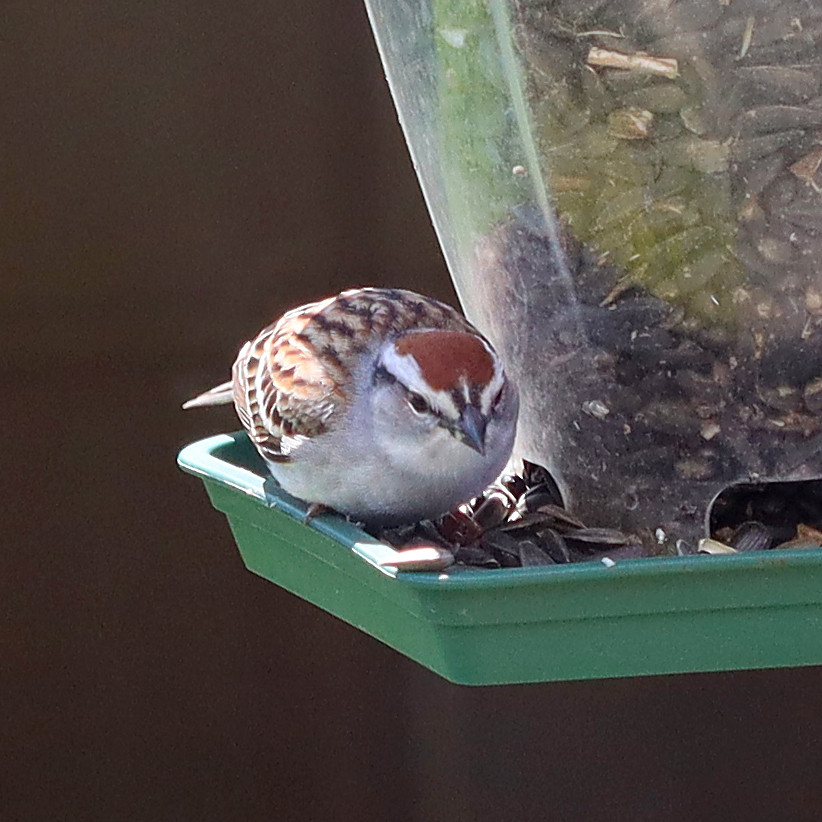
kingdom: Animalia
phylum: Chordata
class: Aves
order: Passeriformes
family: Passerellidae
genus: Spizella
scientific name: Spizella passerina
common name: Chipping sparrow
